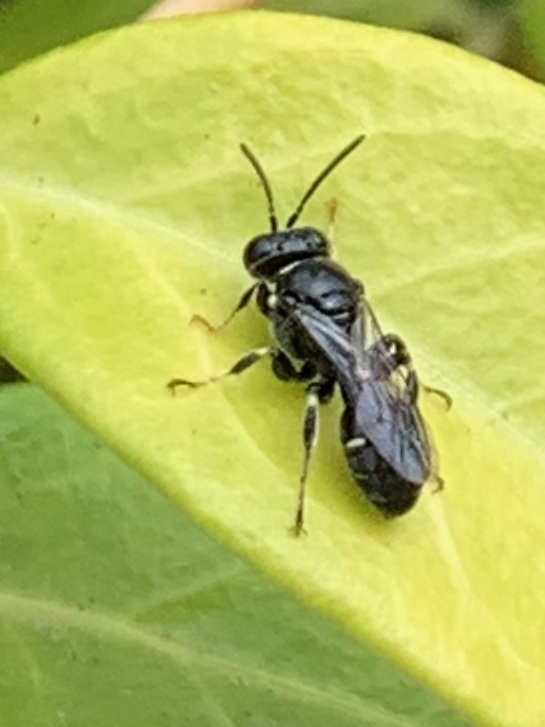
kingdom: Animalia
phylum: Arthropoda
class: Insecta
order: Hymenoptera
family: Crabronidae
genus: Clitemnestra
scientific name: Clitemnestra bipunctata
